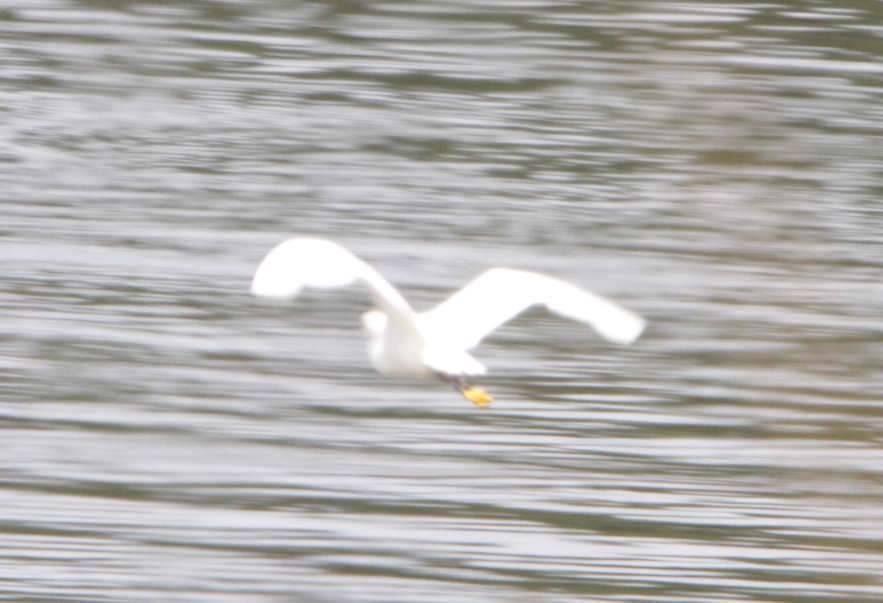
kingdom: Animalia
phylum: Chordata
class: Aves
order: Pelecaniformes
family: Ardeidae
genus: Egretta
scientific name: Egretta thula
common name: Snowy egret
